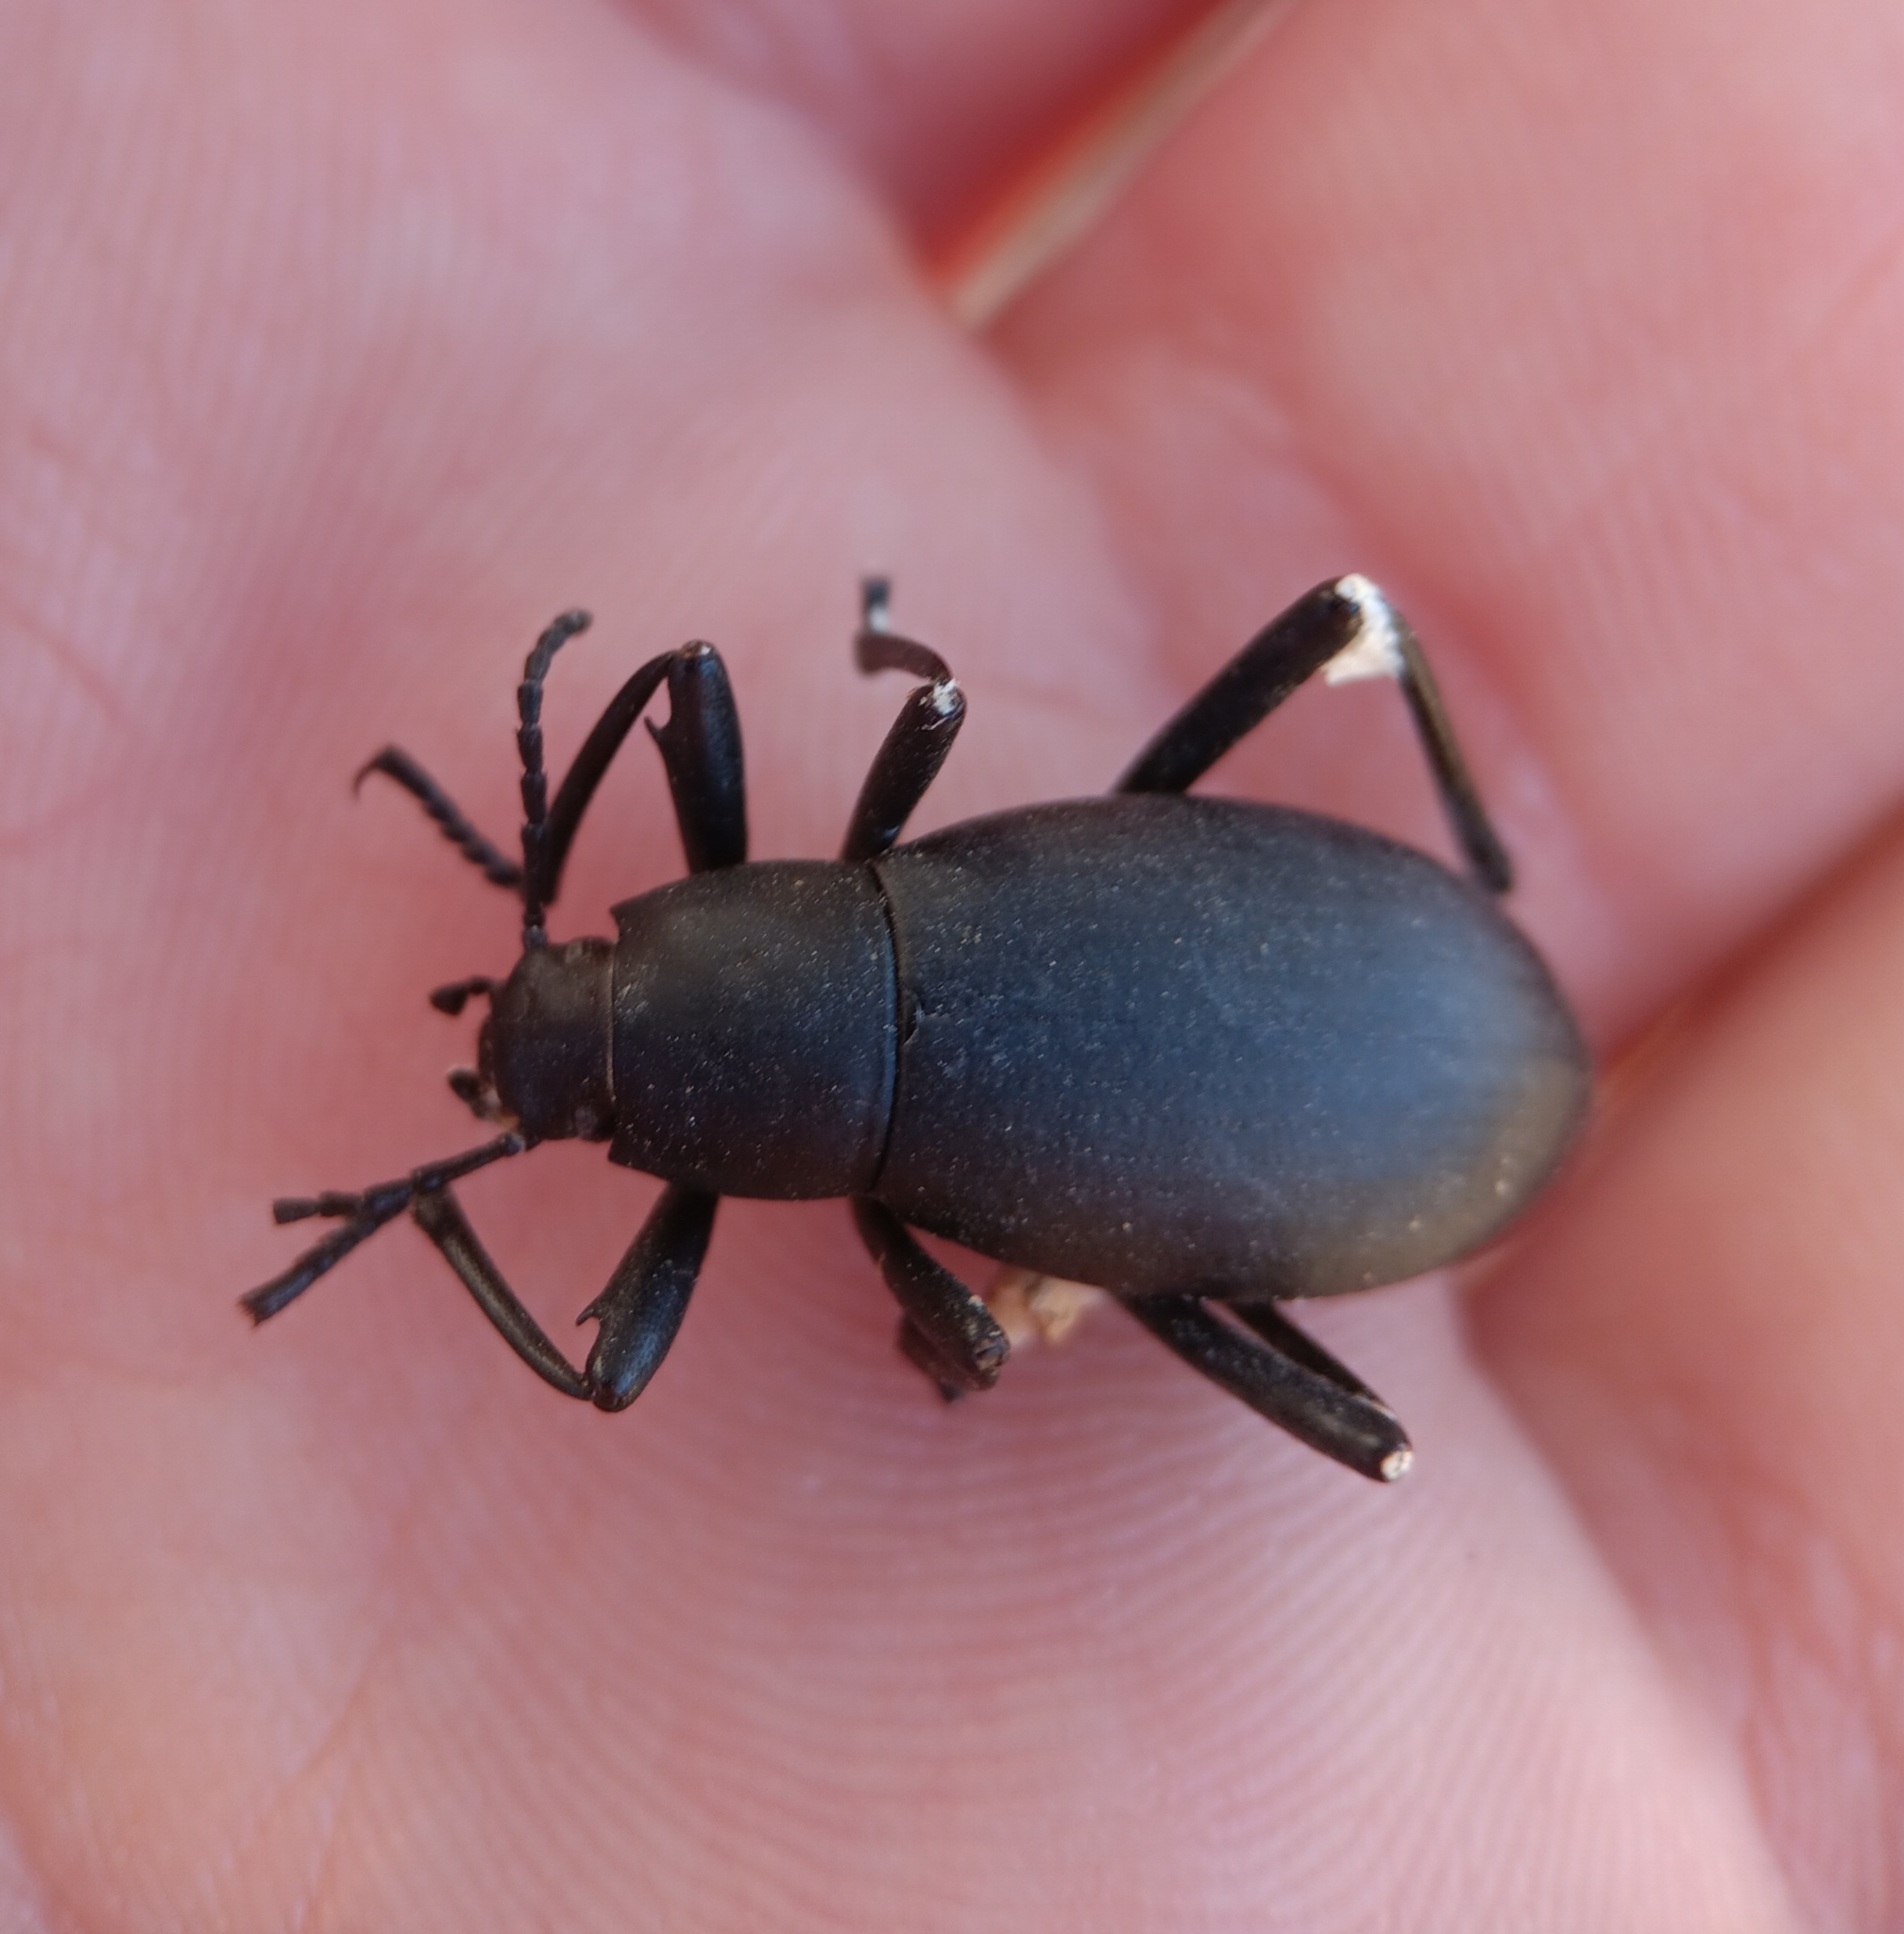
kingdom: Animalia
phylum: Arthropoda
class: Insecta
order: Coleoptera
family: Tenebrionidae
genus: Eleodes
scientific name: Eleodes subnitens
